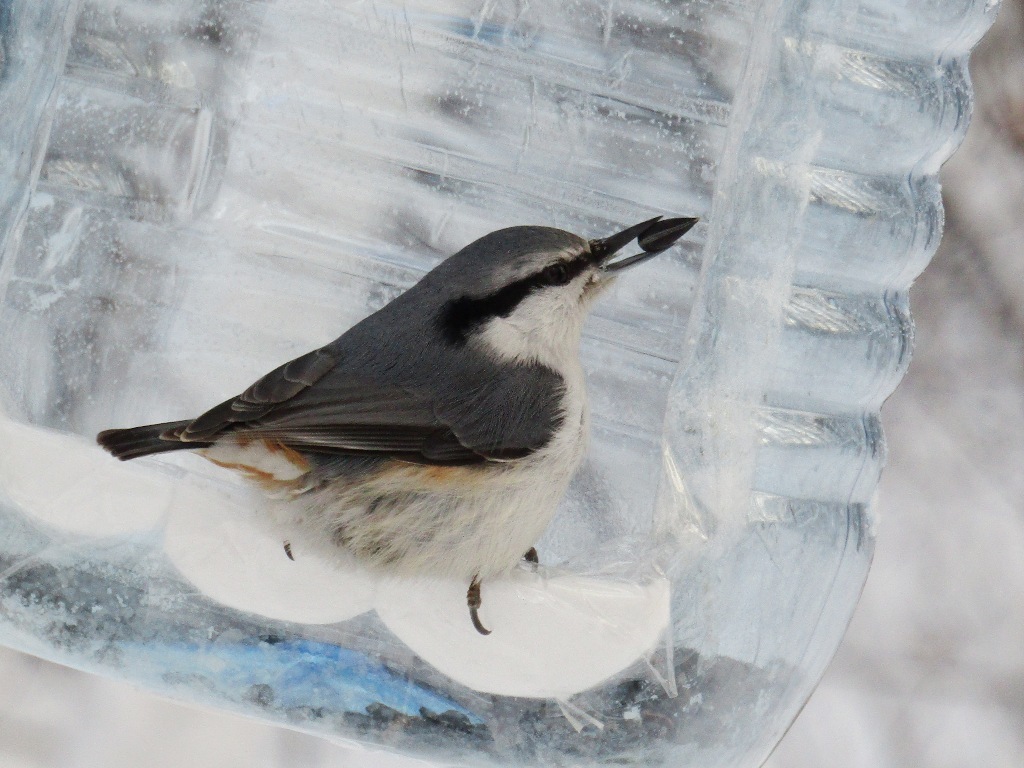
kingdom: Animalia
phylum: Chordata
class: Aves
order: Passeriformes
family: Sittidae
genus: Sitta
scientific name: Sitta europaea
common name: Eurasian nuthatch
